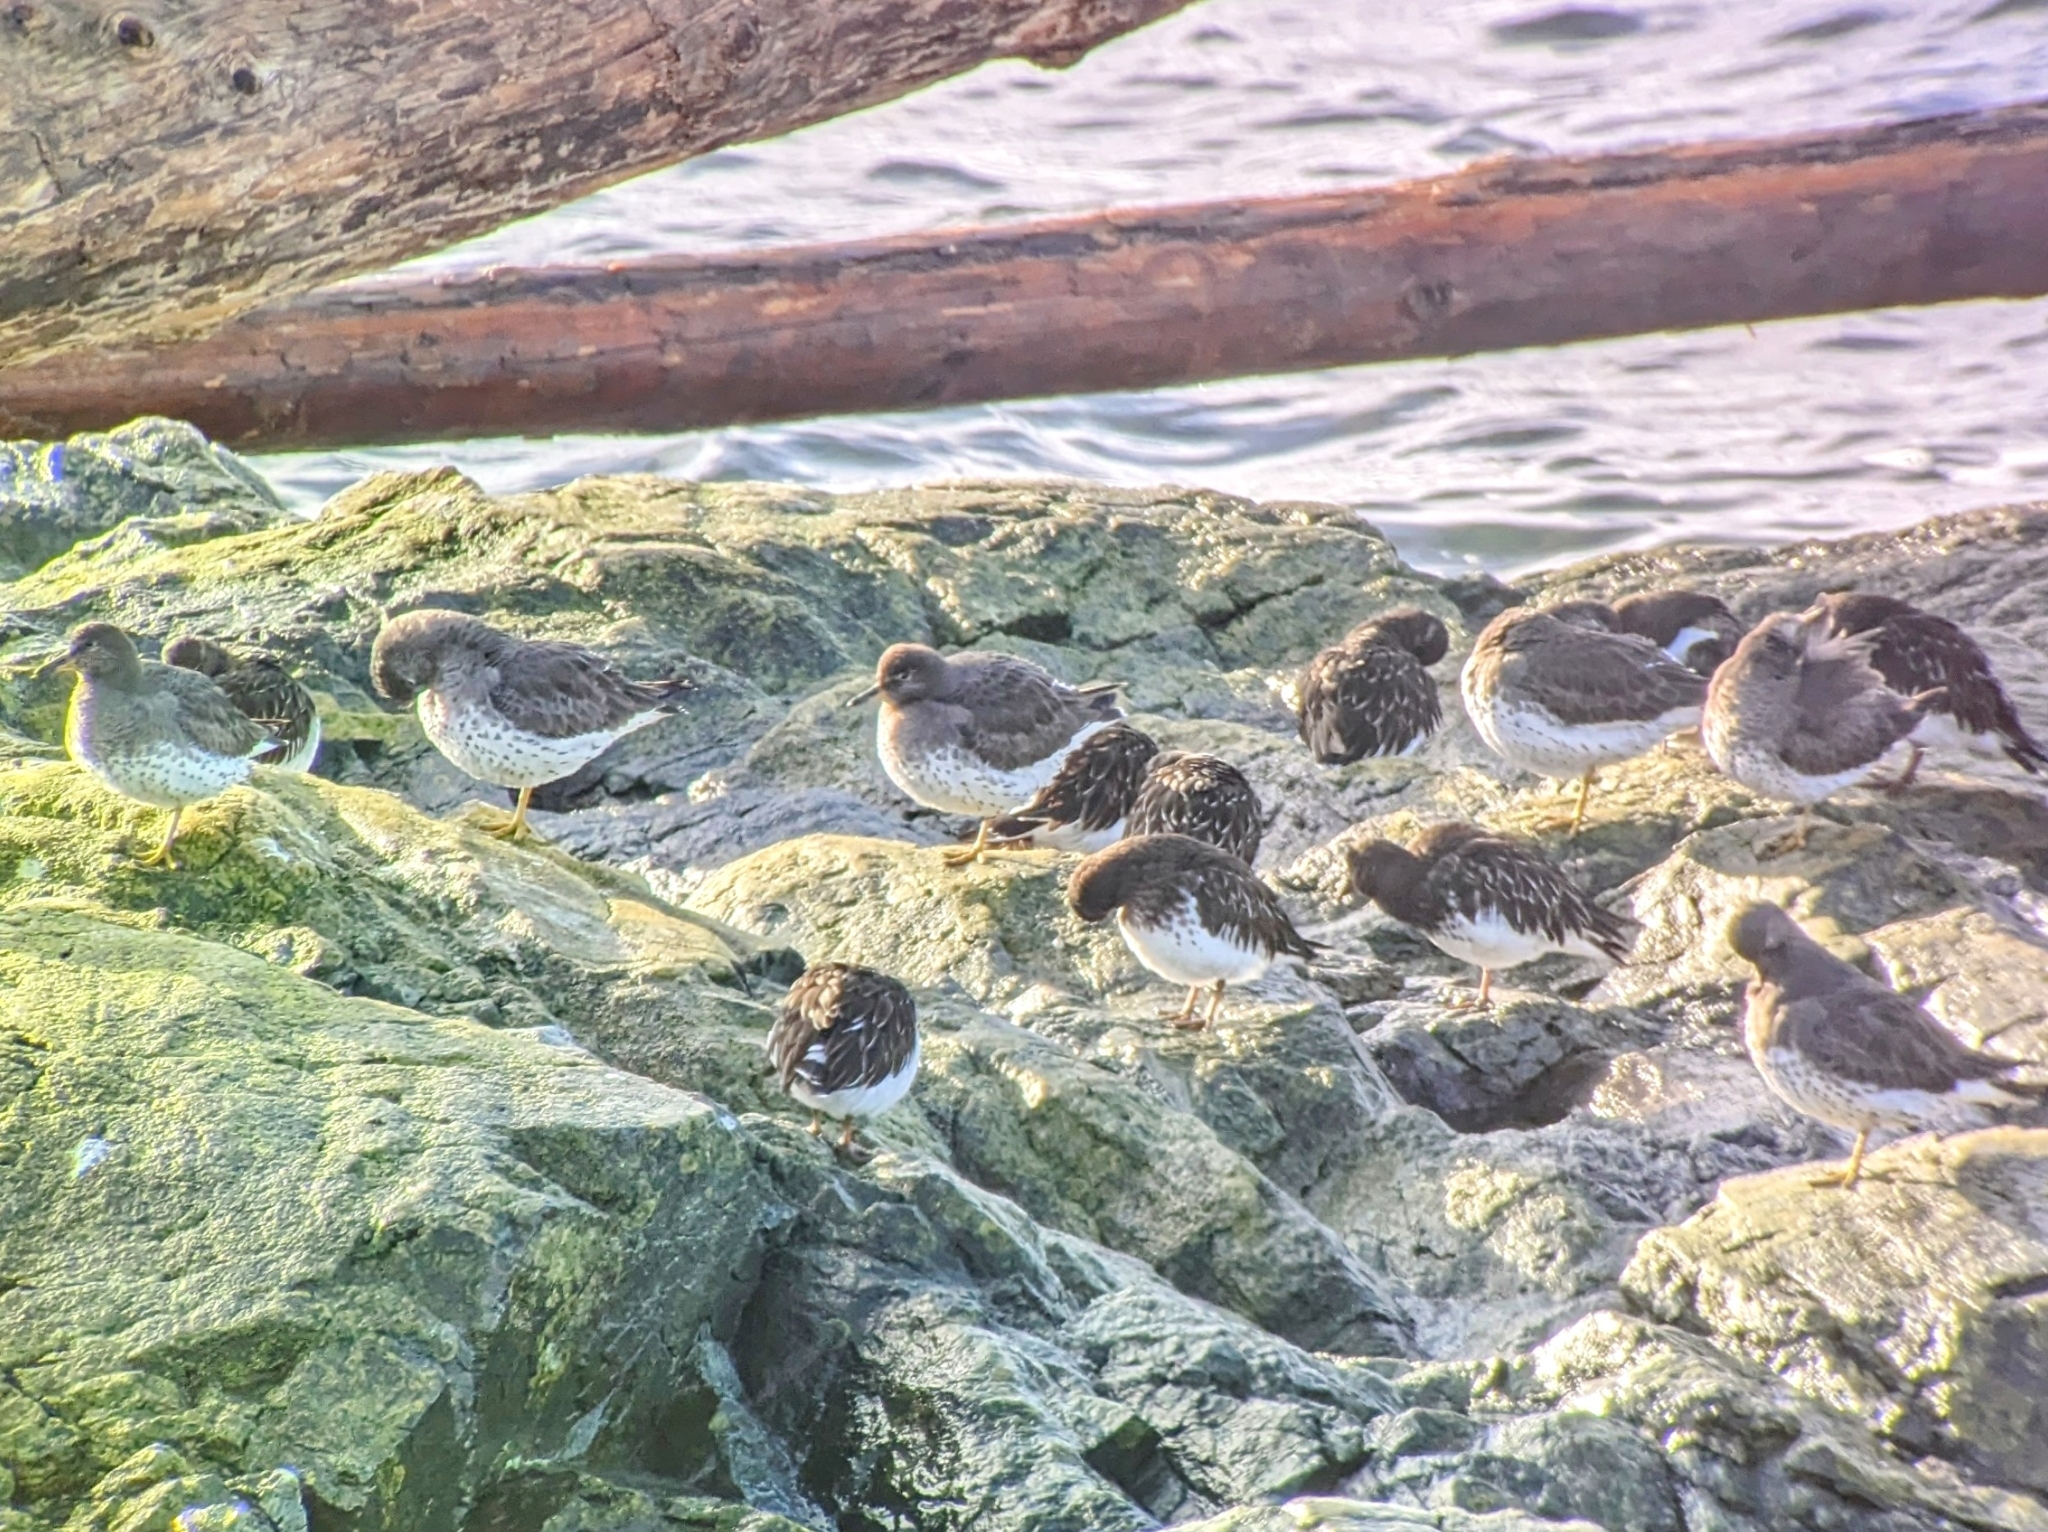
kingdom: Animalia
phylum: Chordata
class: Aves
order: Charadriiformes
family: Scolopacidae
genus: Calidris
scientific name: Calidris virgata
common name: Surfbird
